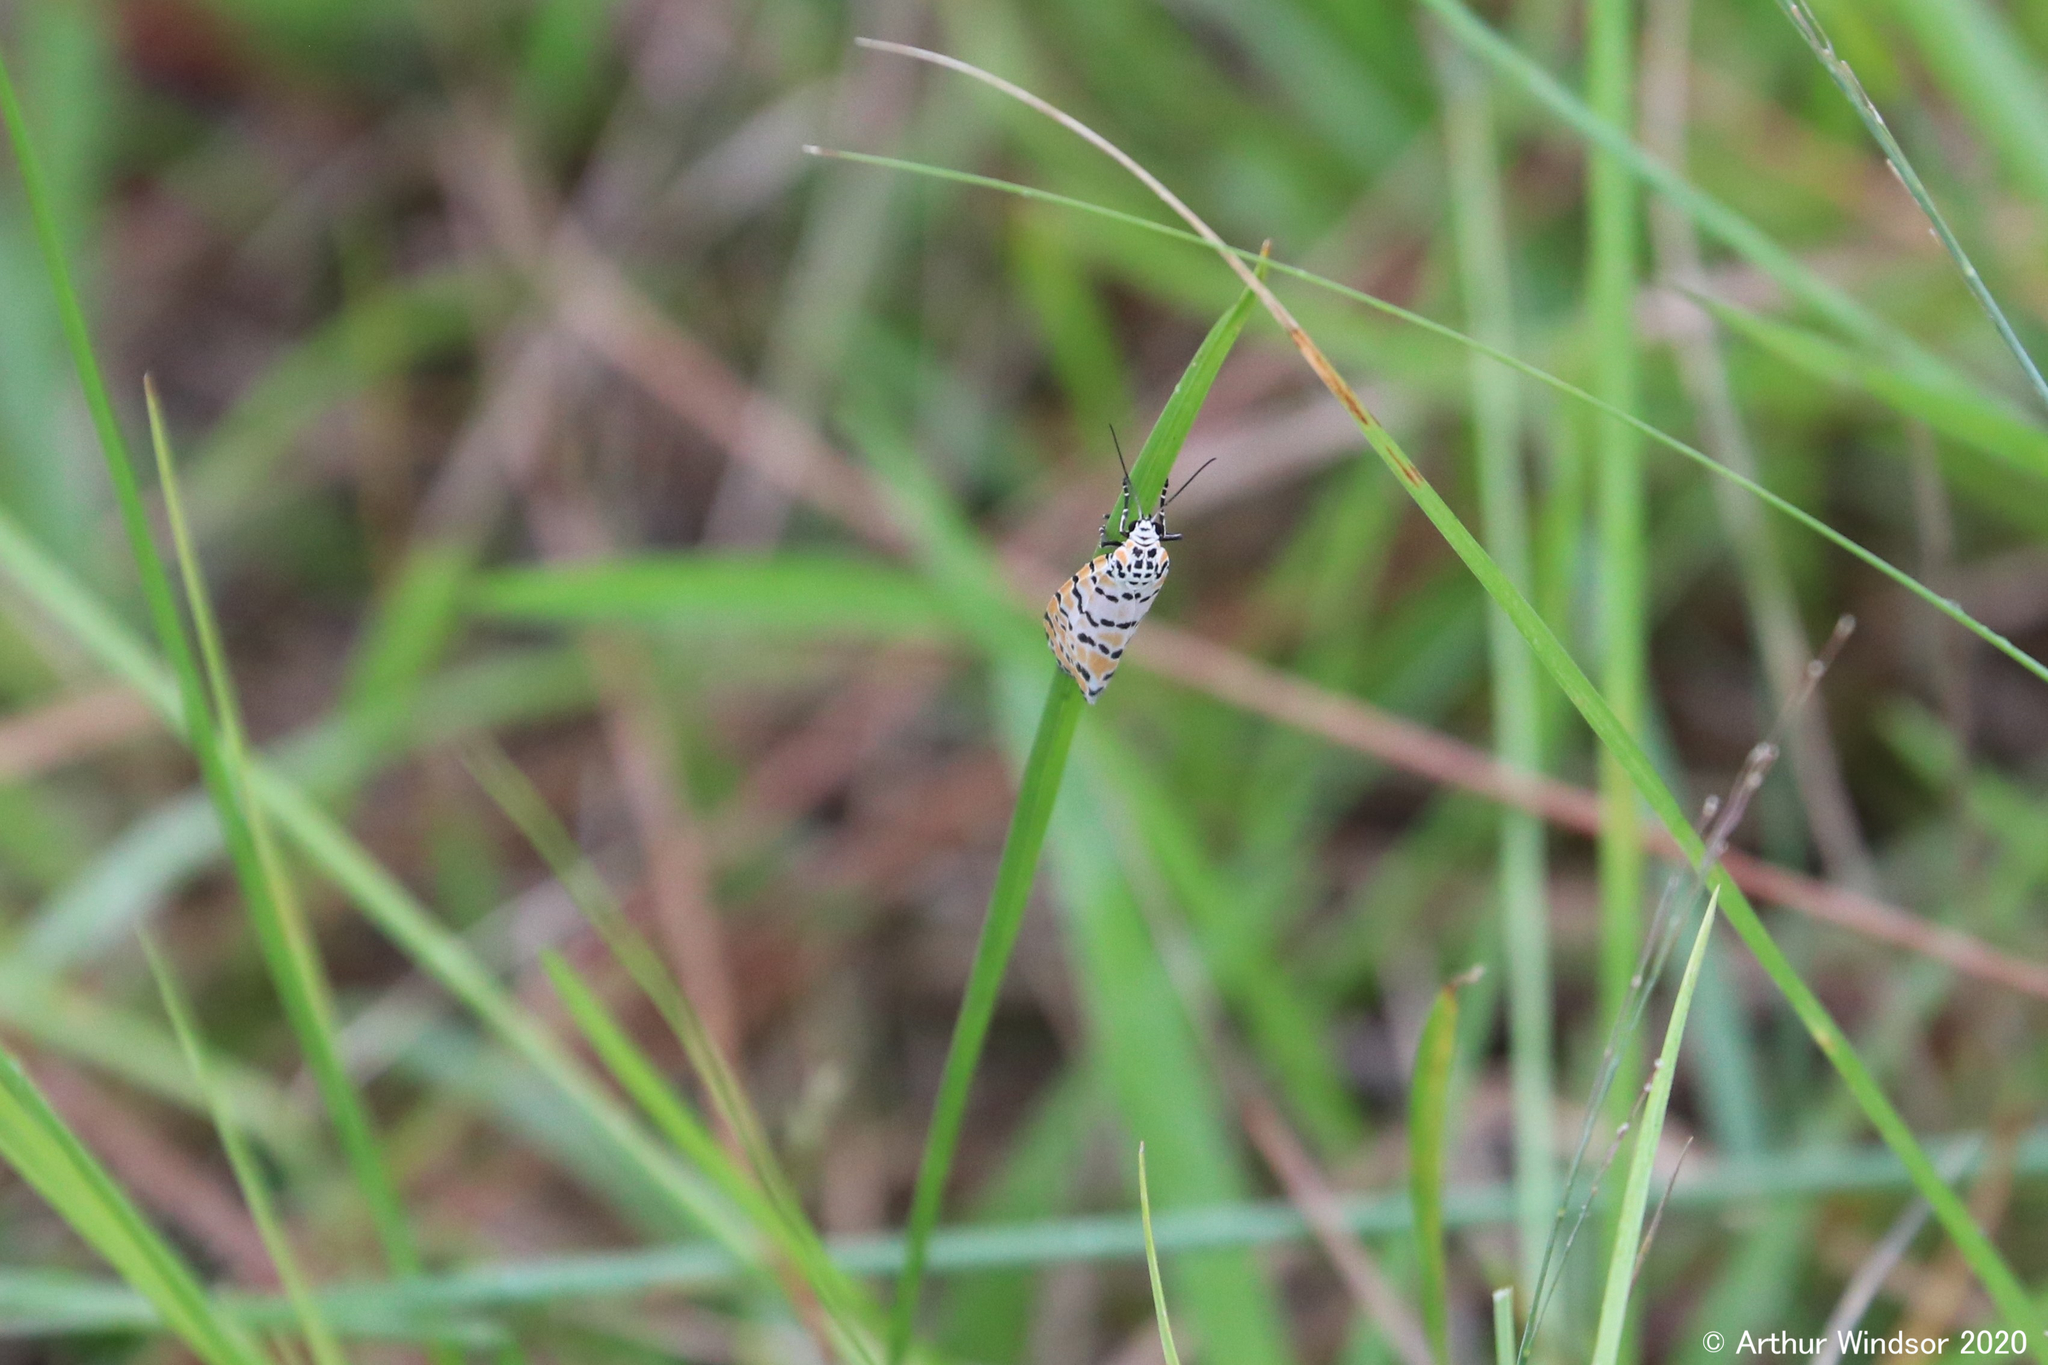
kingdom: Animalia
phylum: Arthropoda
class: Insecta
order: Lepidoptera
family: Erebidae
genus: Utetheisa
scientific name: Utetheisa ornatrix
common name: Beautiful utetheisa
